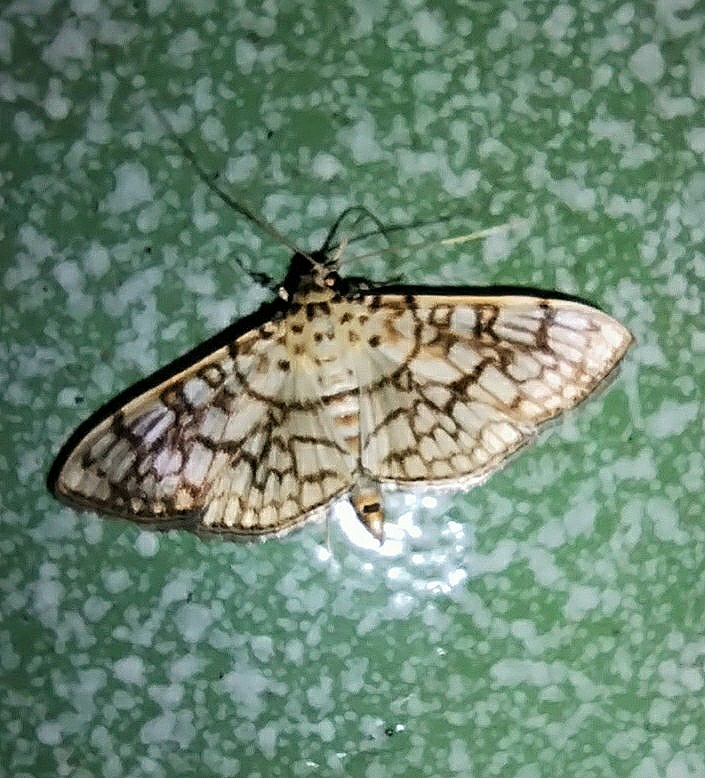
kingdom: Animalia
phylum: Arthropoda
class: Insecta
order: Lepidoptera
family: Crambidae
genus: Haritalodes
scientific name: Haritalodes derogata
